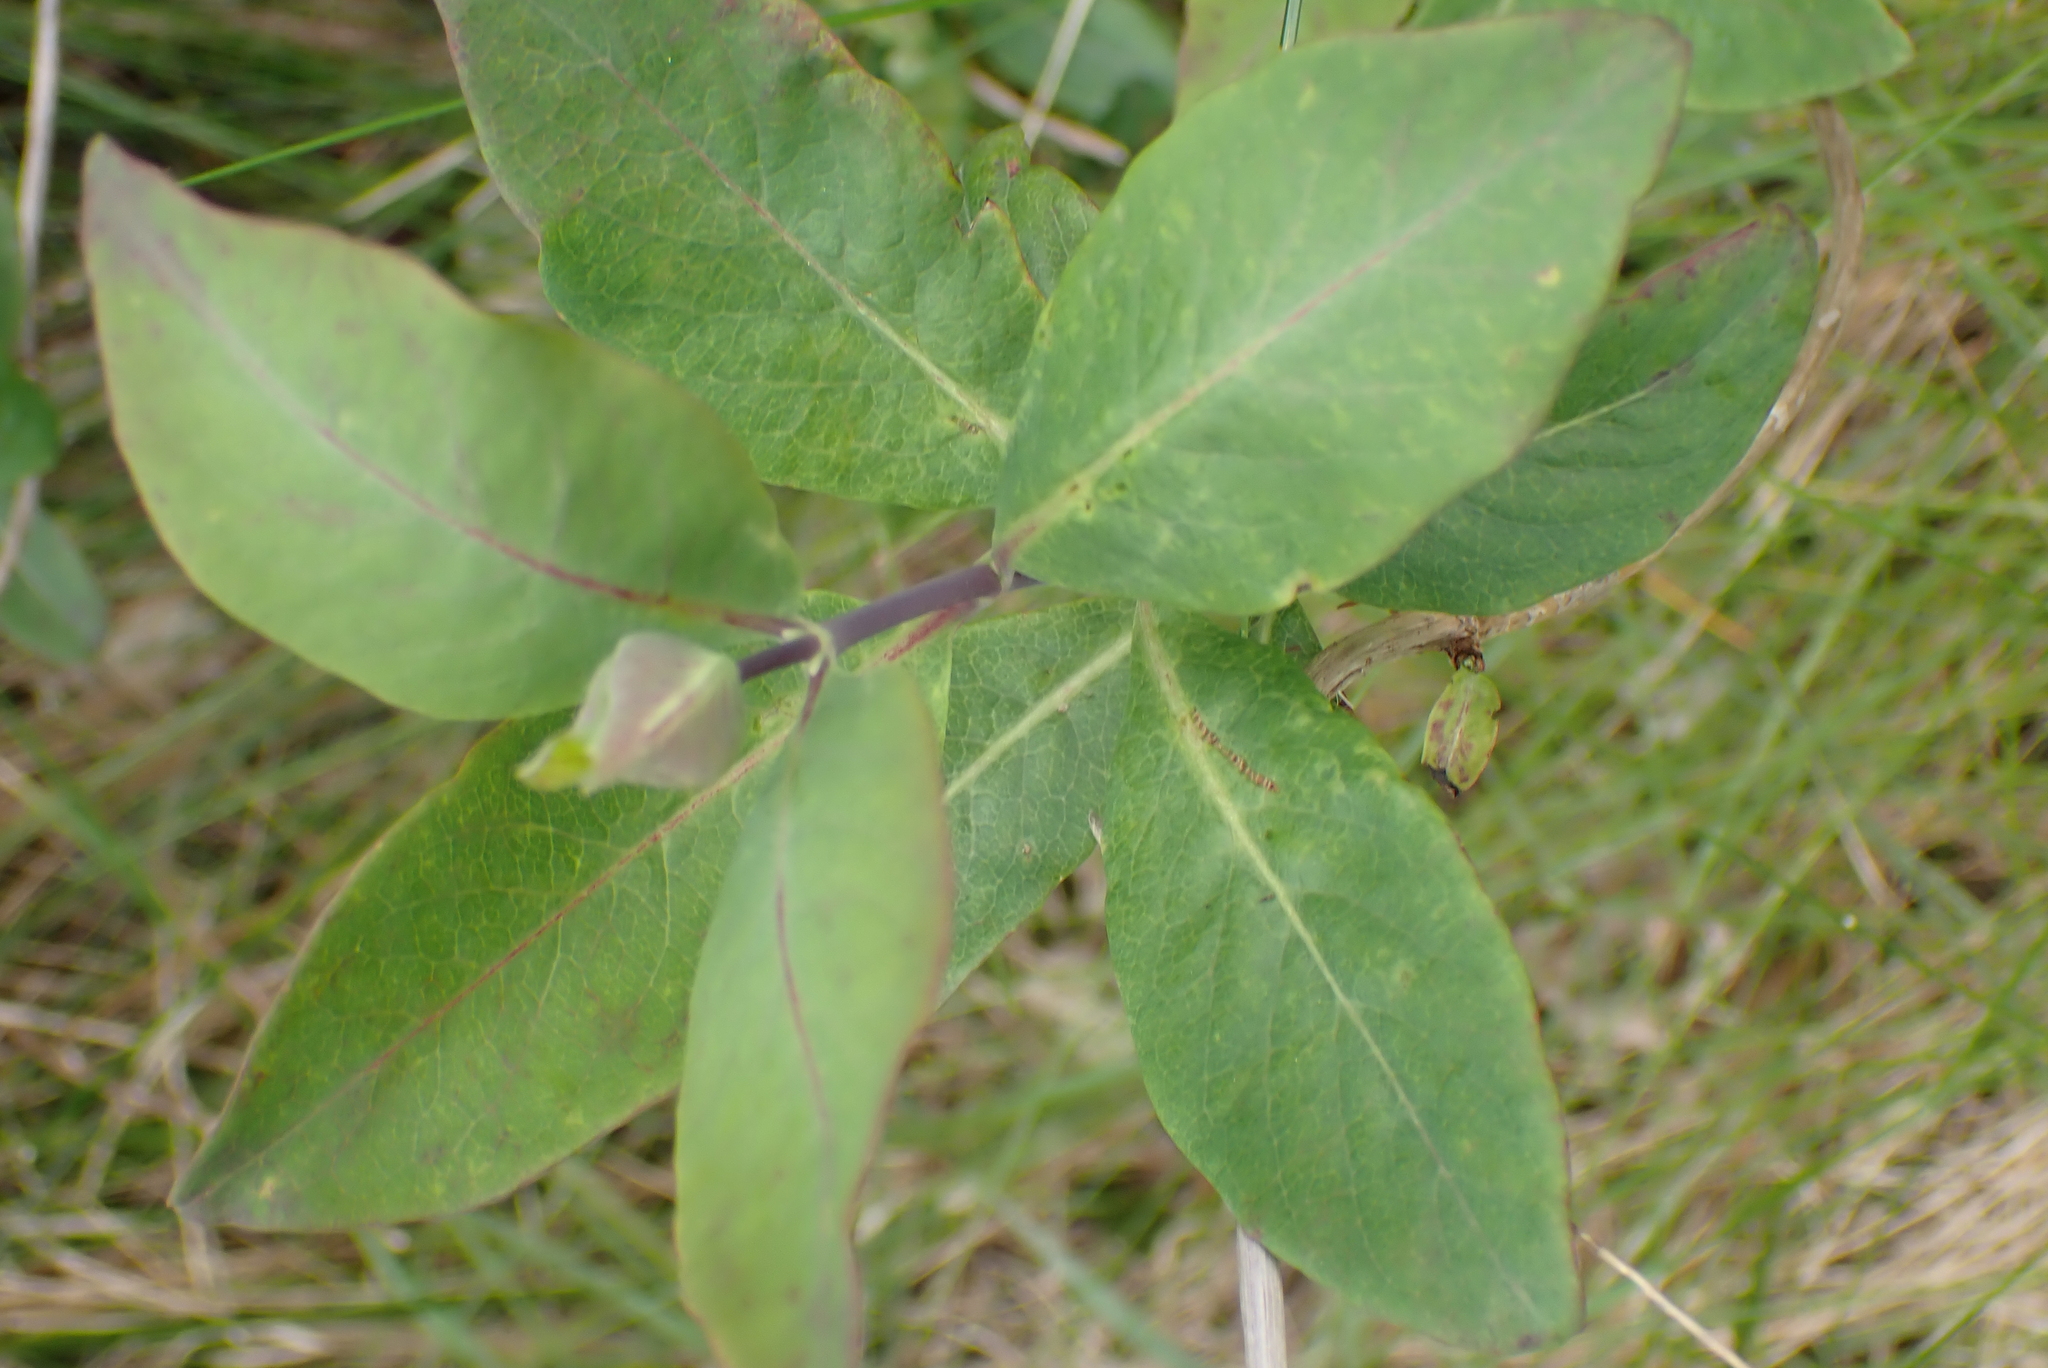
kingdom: Plantae
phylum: Tracheophyta
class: Magnoliopsida
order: Dipsacales
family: Caprifoliaceae
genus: Lonicera
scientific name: Lonicera periclymenum
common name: European honeysuckle
